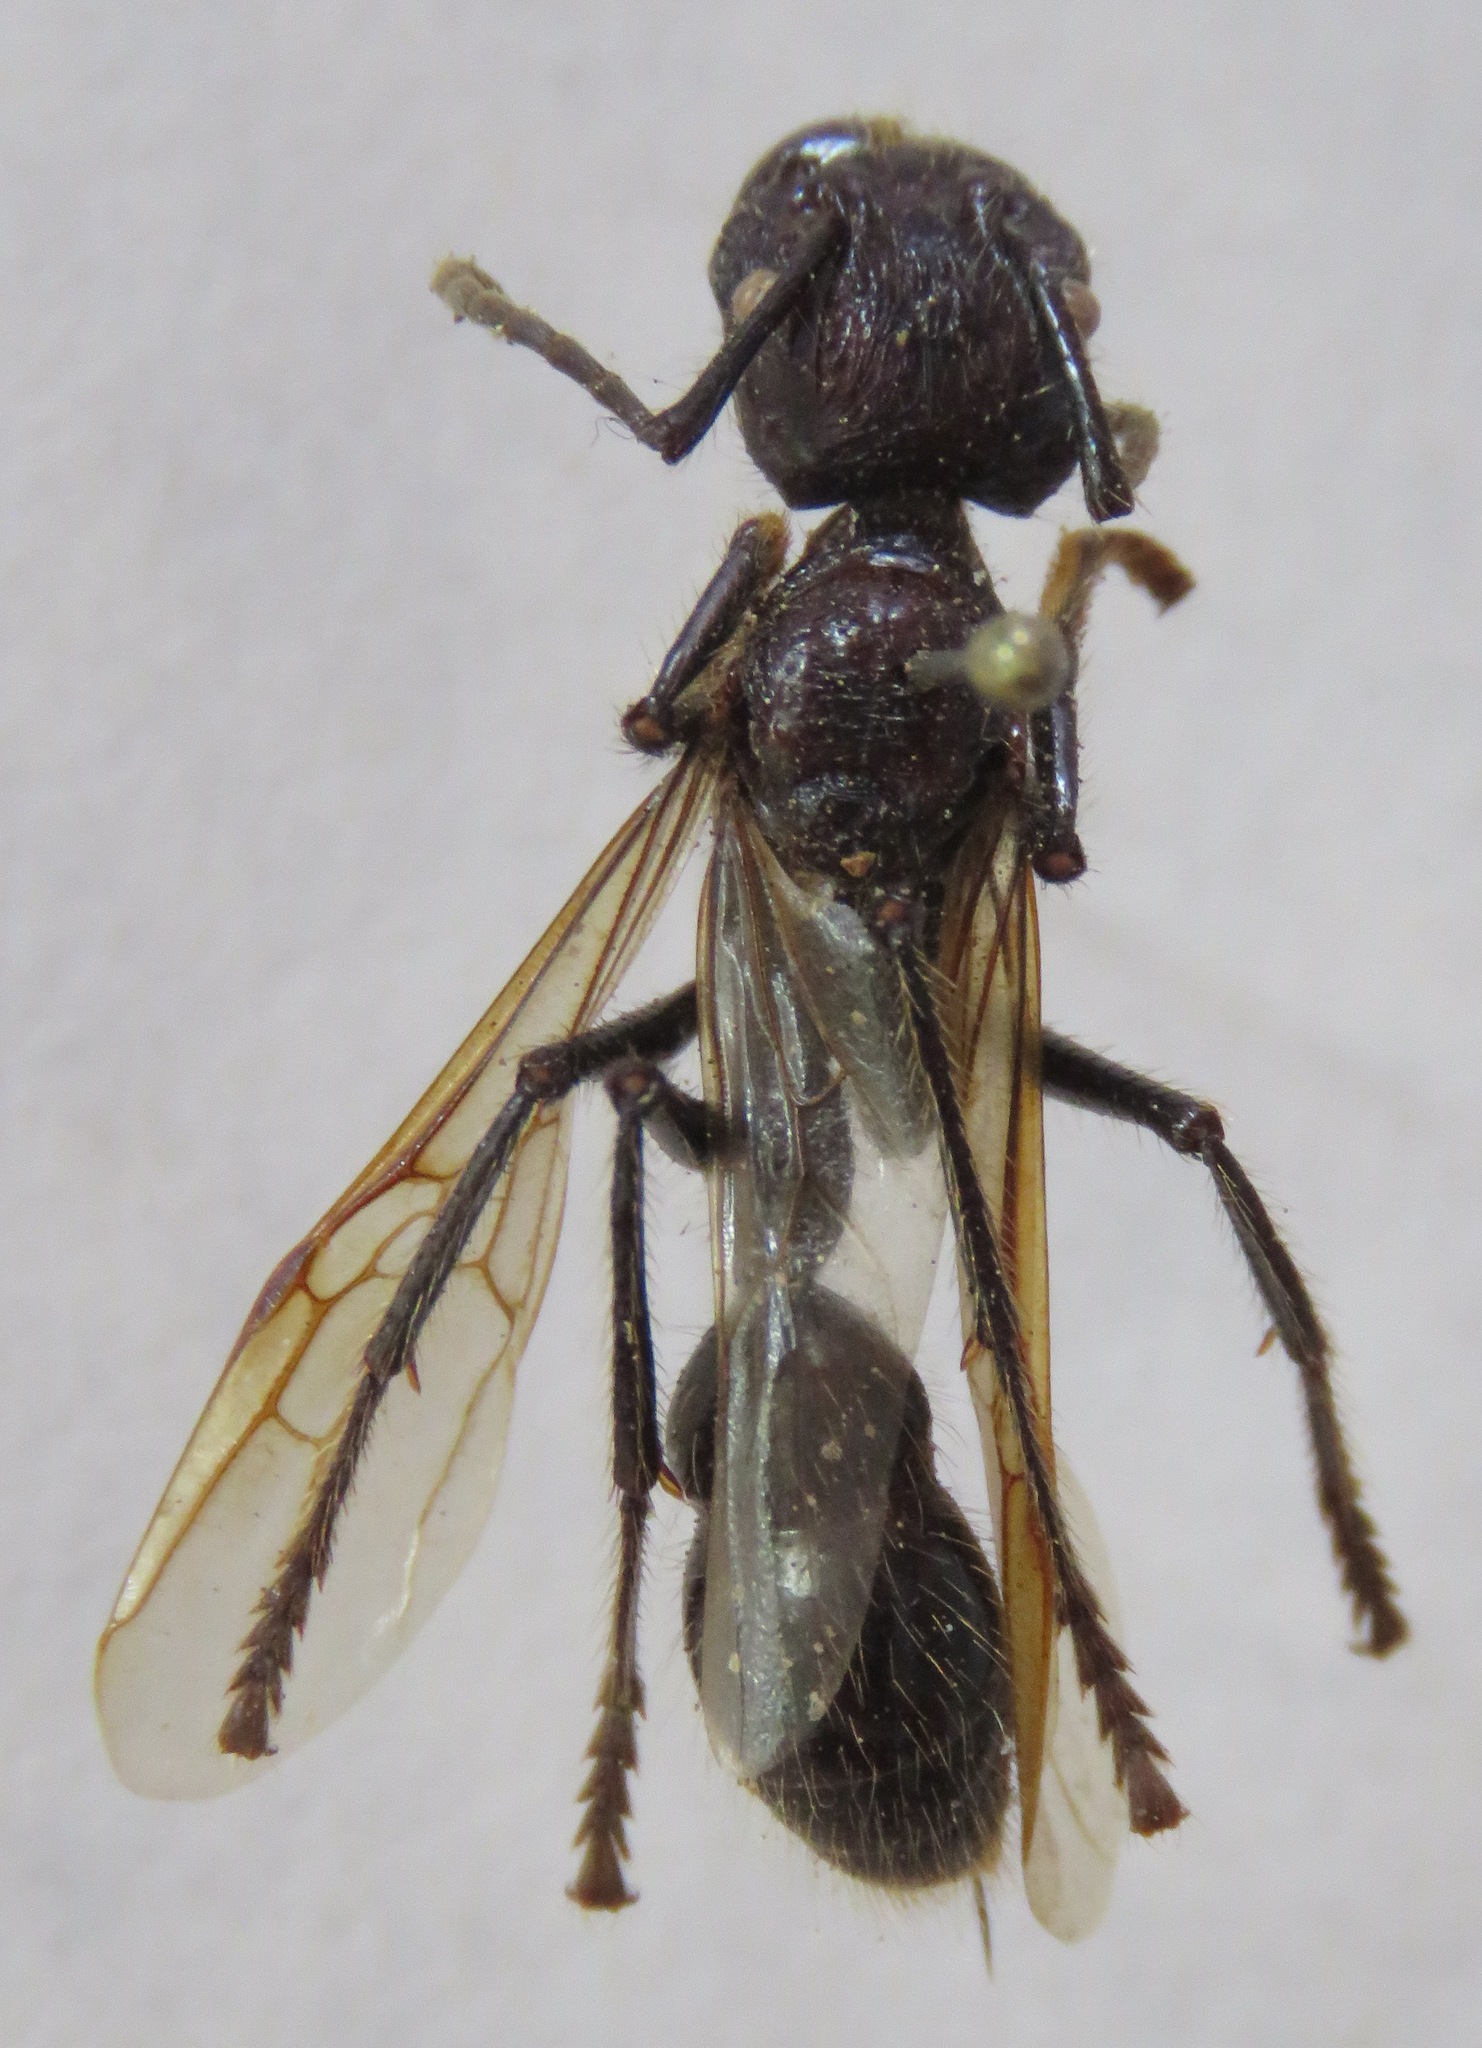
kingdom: Animalia
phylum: Arthropoda
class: Insecta
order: Hymenoptera
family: Formicidae
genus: Paraponera
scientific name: Paraponera clavata
